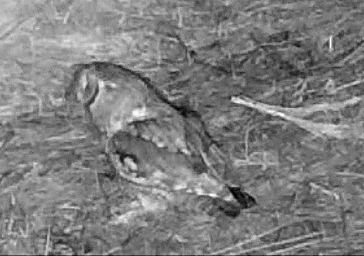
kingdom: Animalia
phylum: Chordata
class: Aves
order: Strigiformes
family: Strigidae
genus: Megascops
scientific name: Megascops asio
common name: Eastern screech-owl
